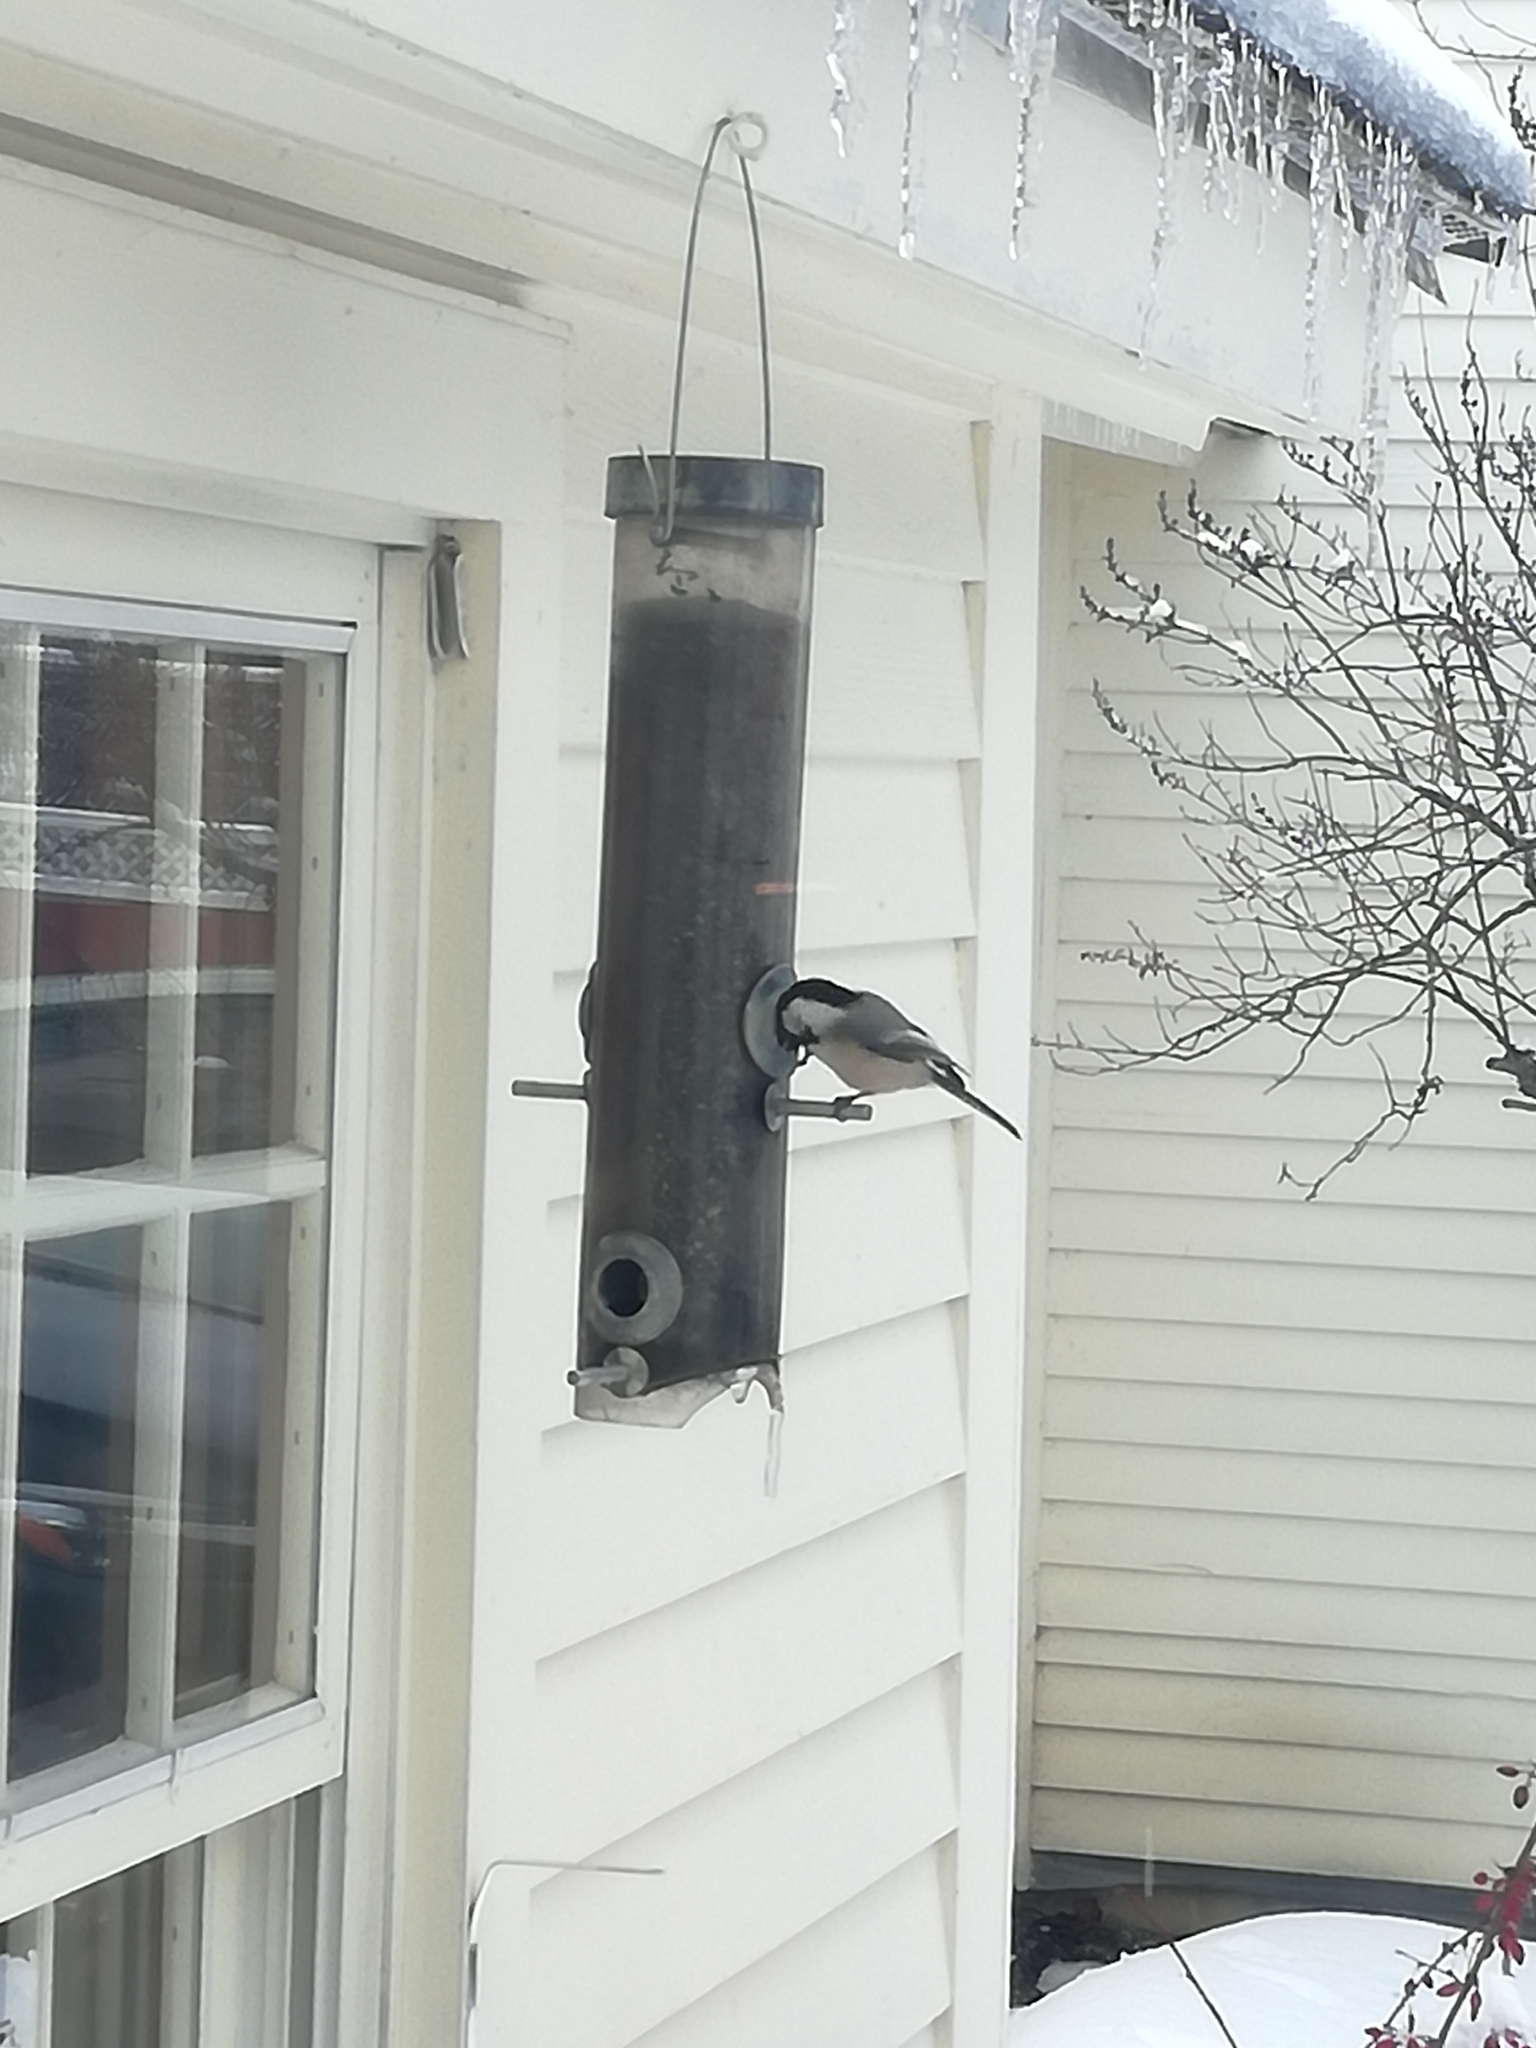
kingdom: Animalia
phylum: Chordata
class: Aves
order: Passeriformes
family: Paridae
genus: Poecile
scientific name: Poecile atricapillus
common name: Black-capped chickadee
